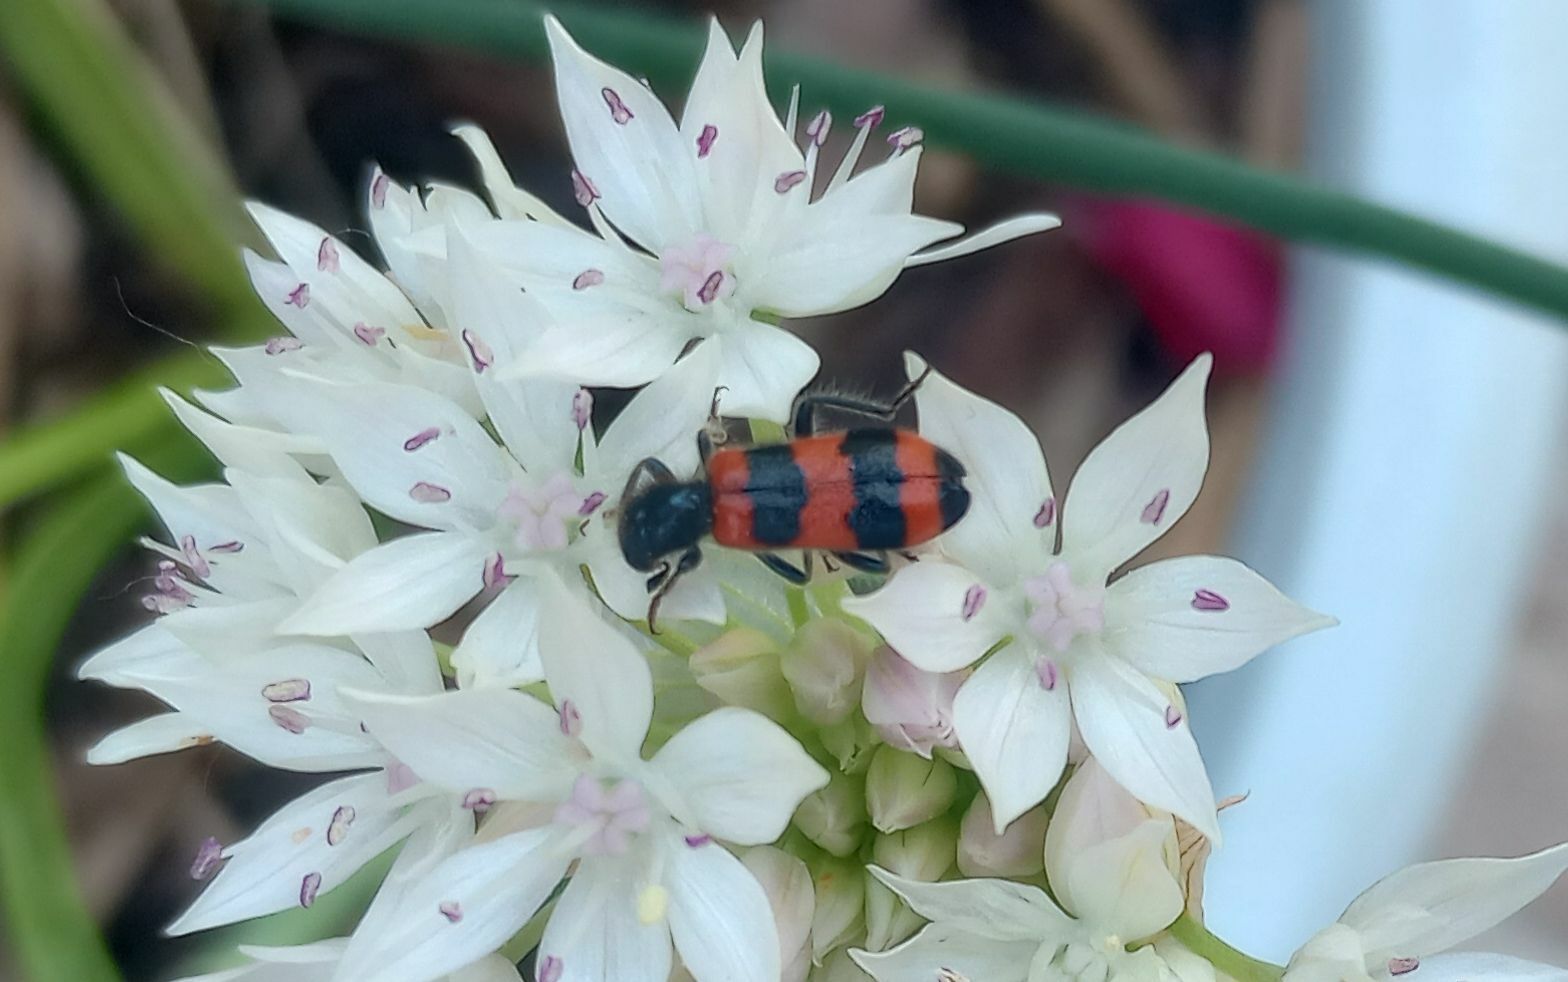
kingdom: Animalia
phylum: Arthropoda
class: Insecta
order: Coleoptera
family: Cleridae
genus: Trichodes
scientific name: Trichodes apiarius
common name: Bee-eating beetle
